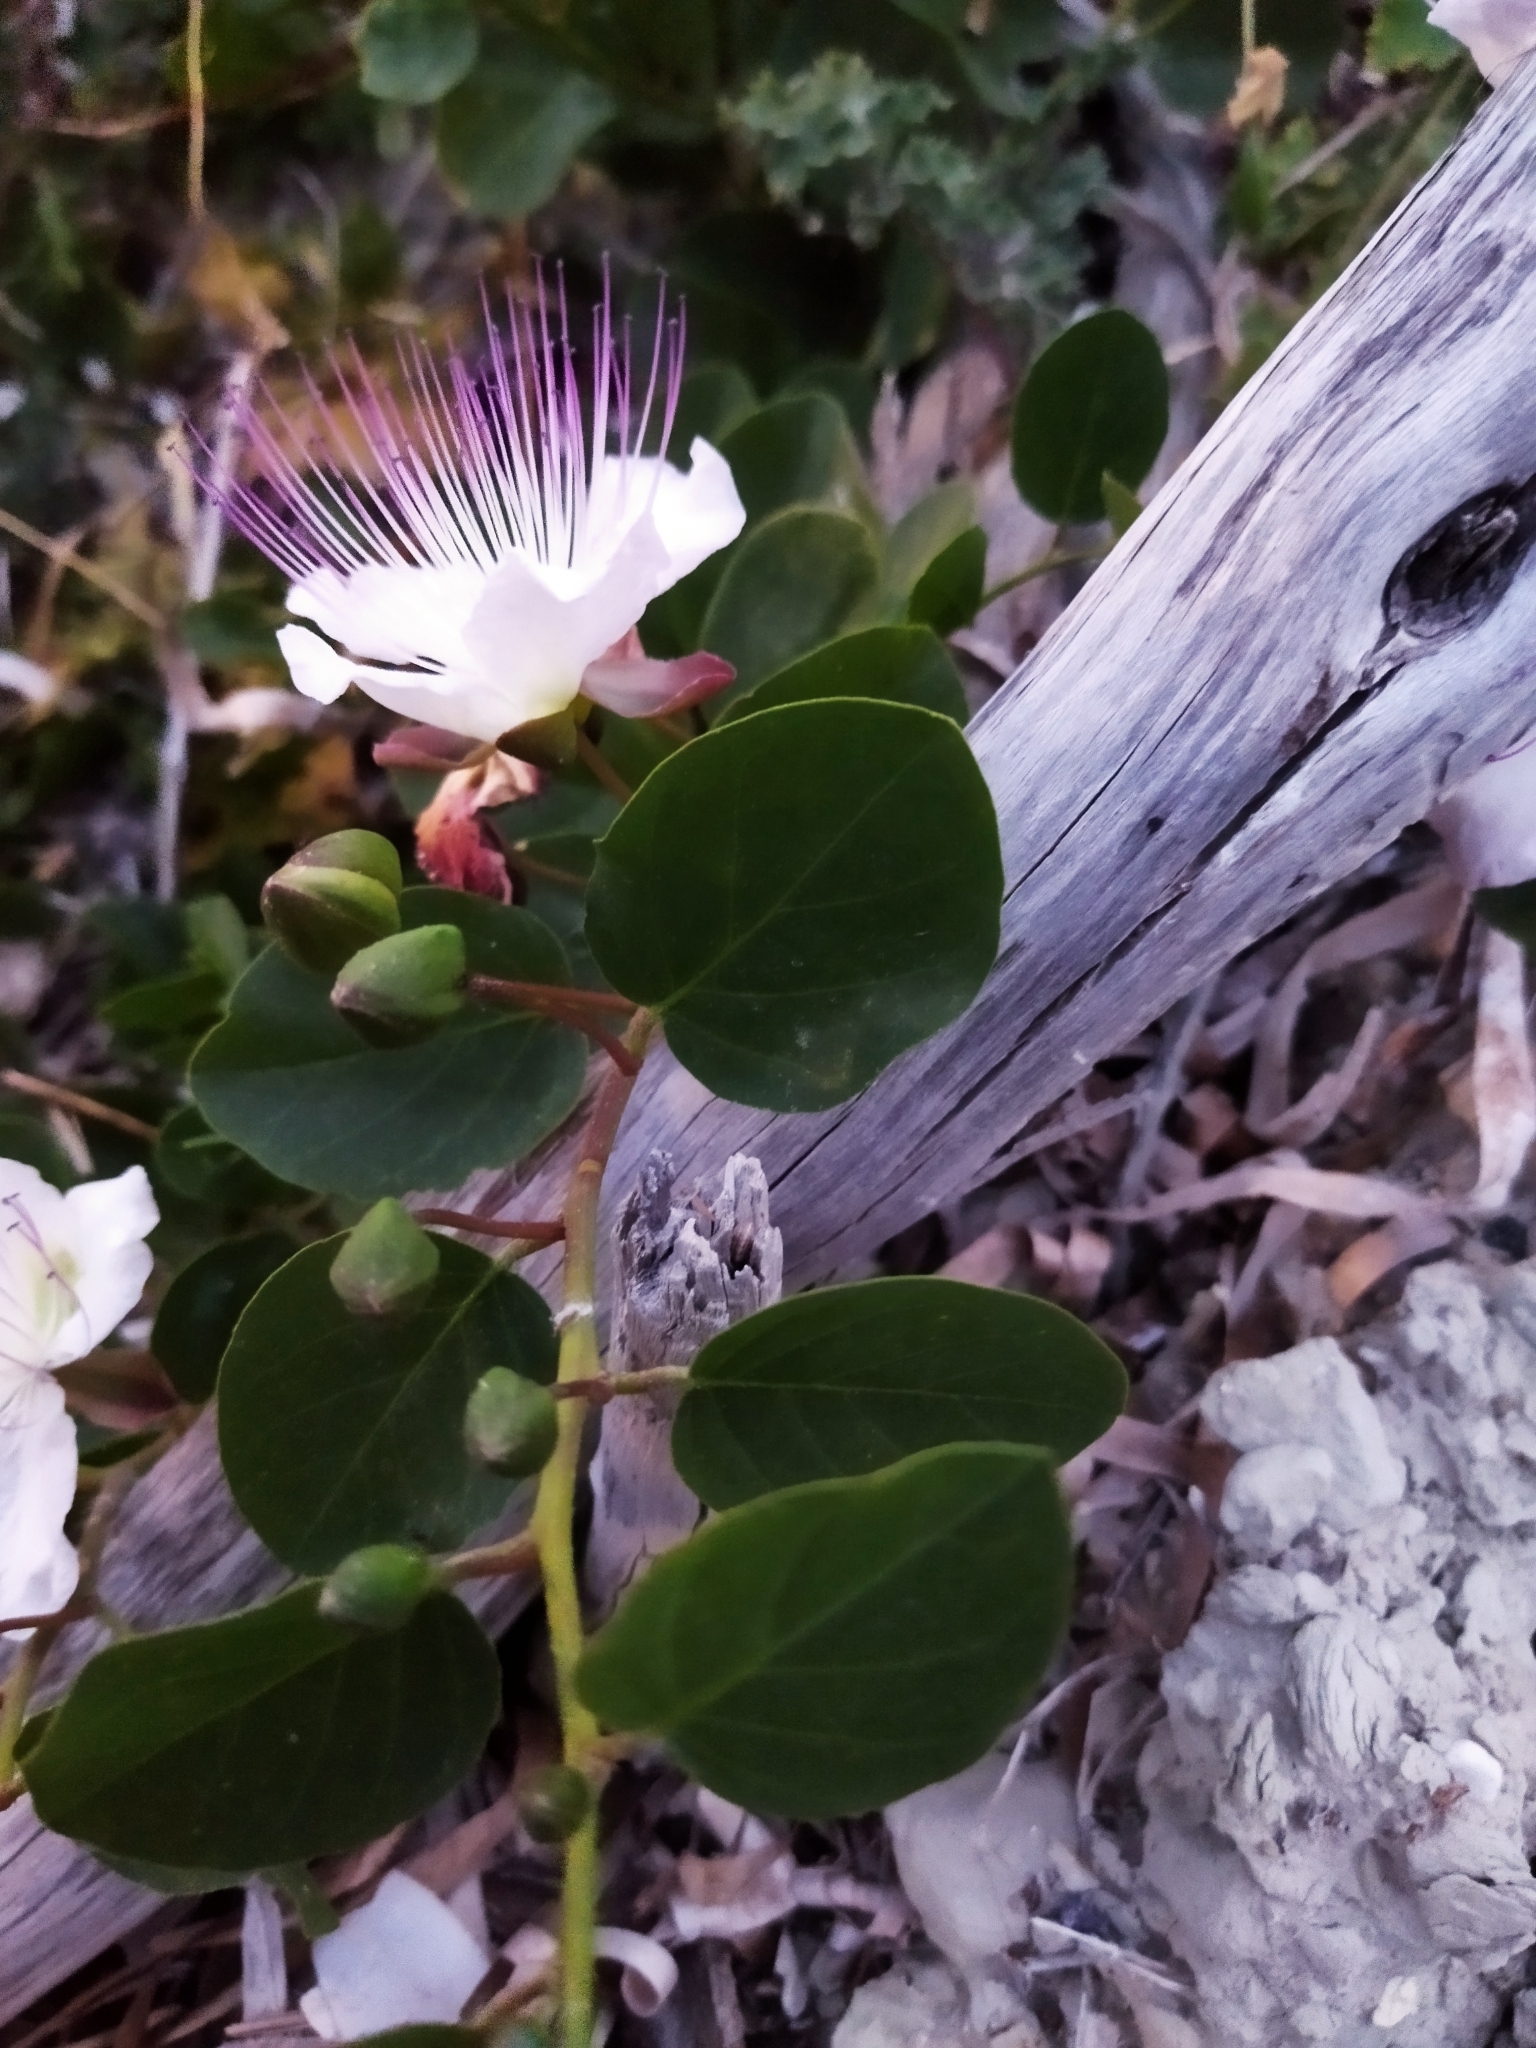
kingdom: Plantae
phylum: Tracheophyta
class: Magnoliopsida
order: Brassicales
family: Capparaceae
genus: Capparis
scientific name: Capparis orientalis
